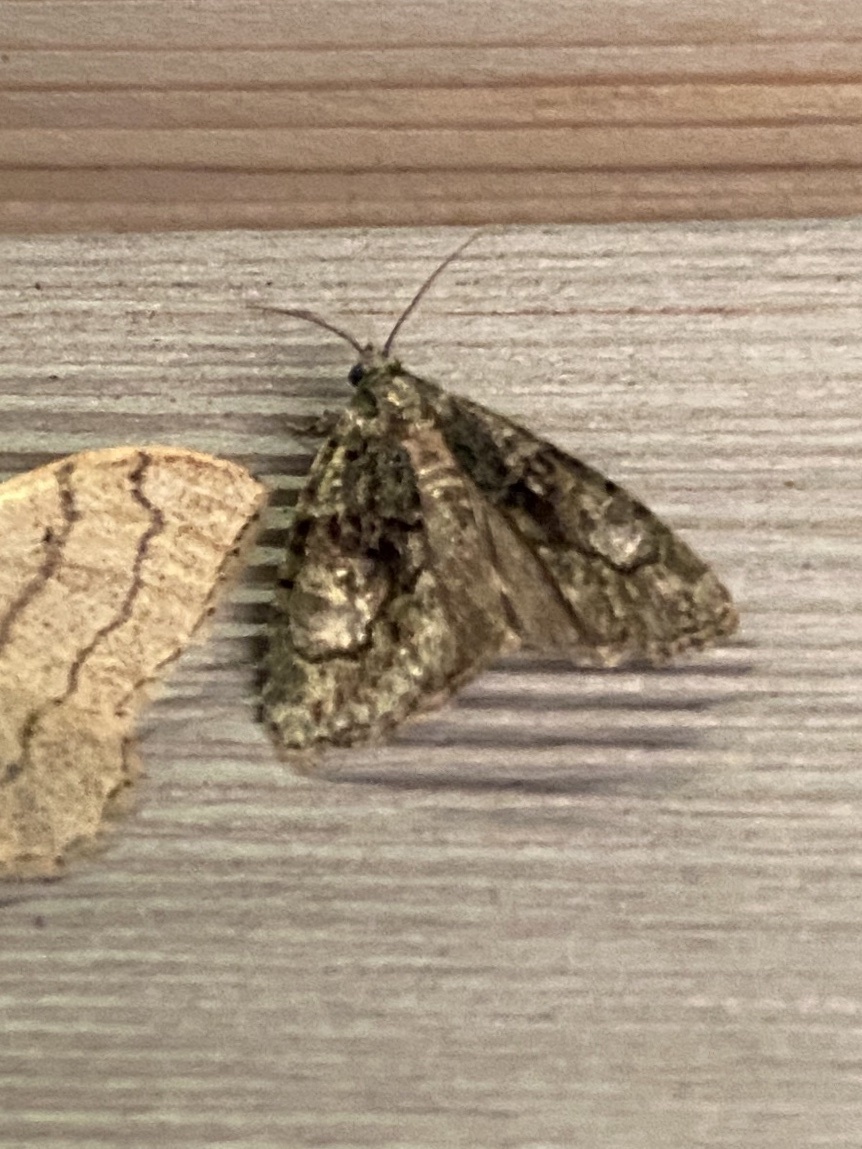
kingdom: Animalia
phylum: Arthropoda
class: Insecta
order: Lepidoptera
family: Noctuidae
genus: Cryphia
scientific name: Cryphia algae
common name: Tree-lichen beauty
